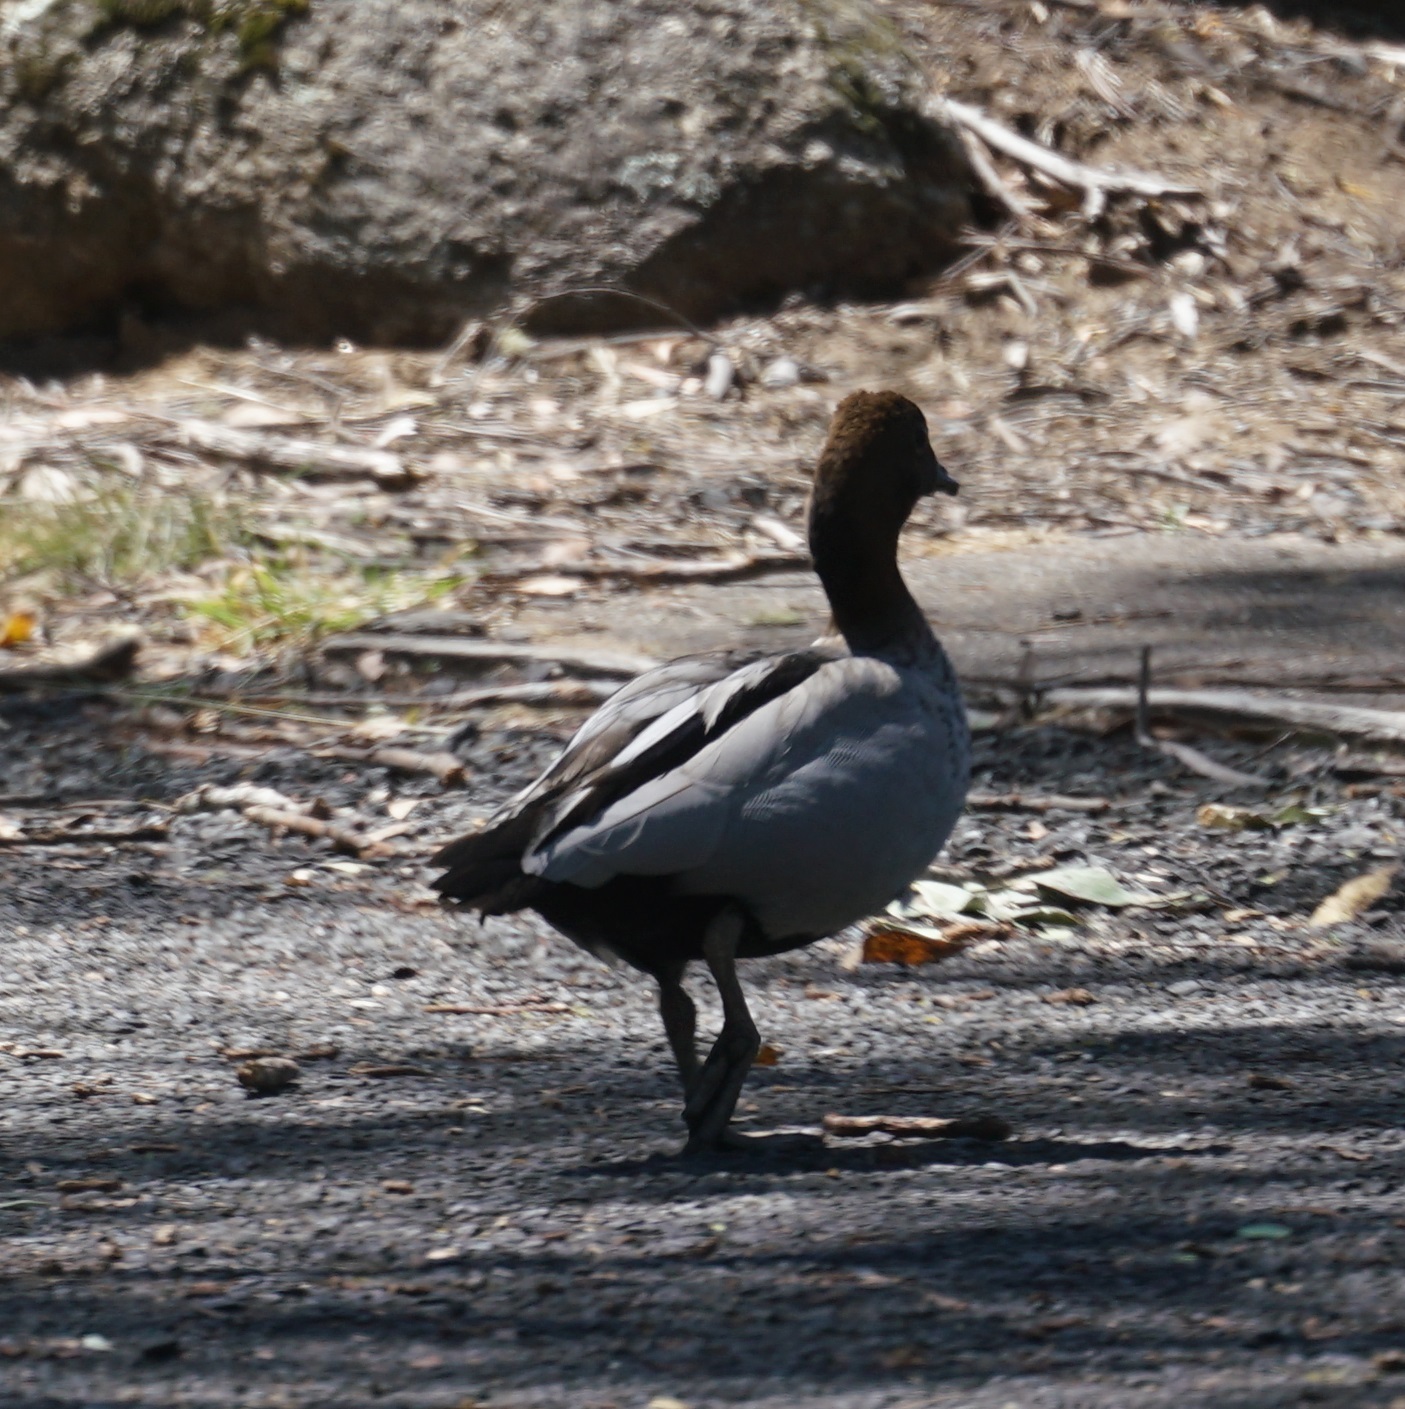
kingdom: Animalia
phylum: Chordata
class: Aves
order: Anseriformes
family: Anatidae
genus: Chenonetta
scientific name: Chenonetta jubata
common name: Maned duck
